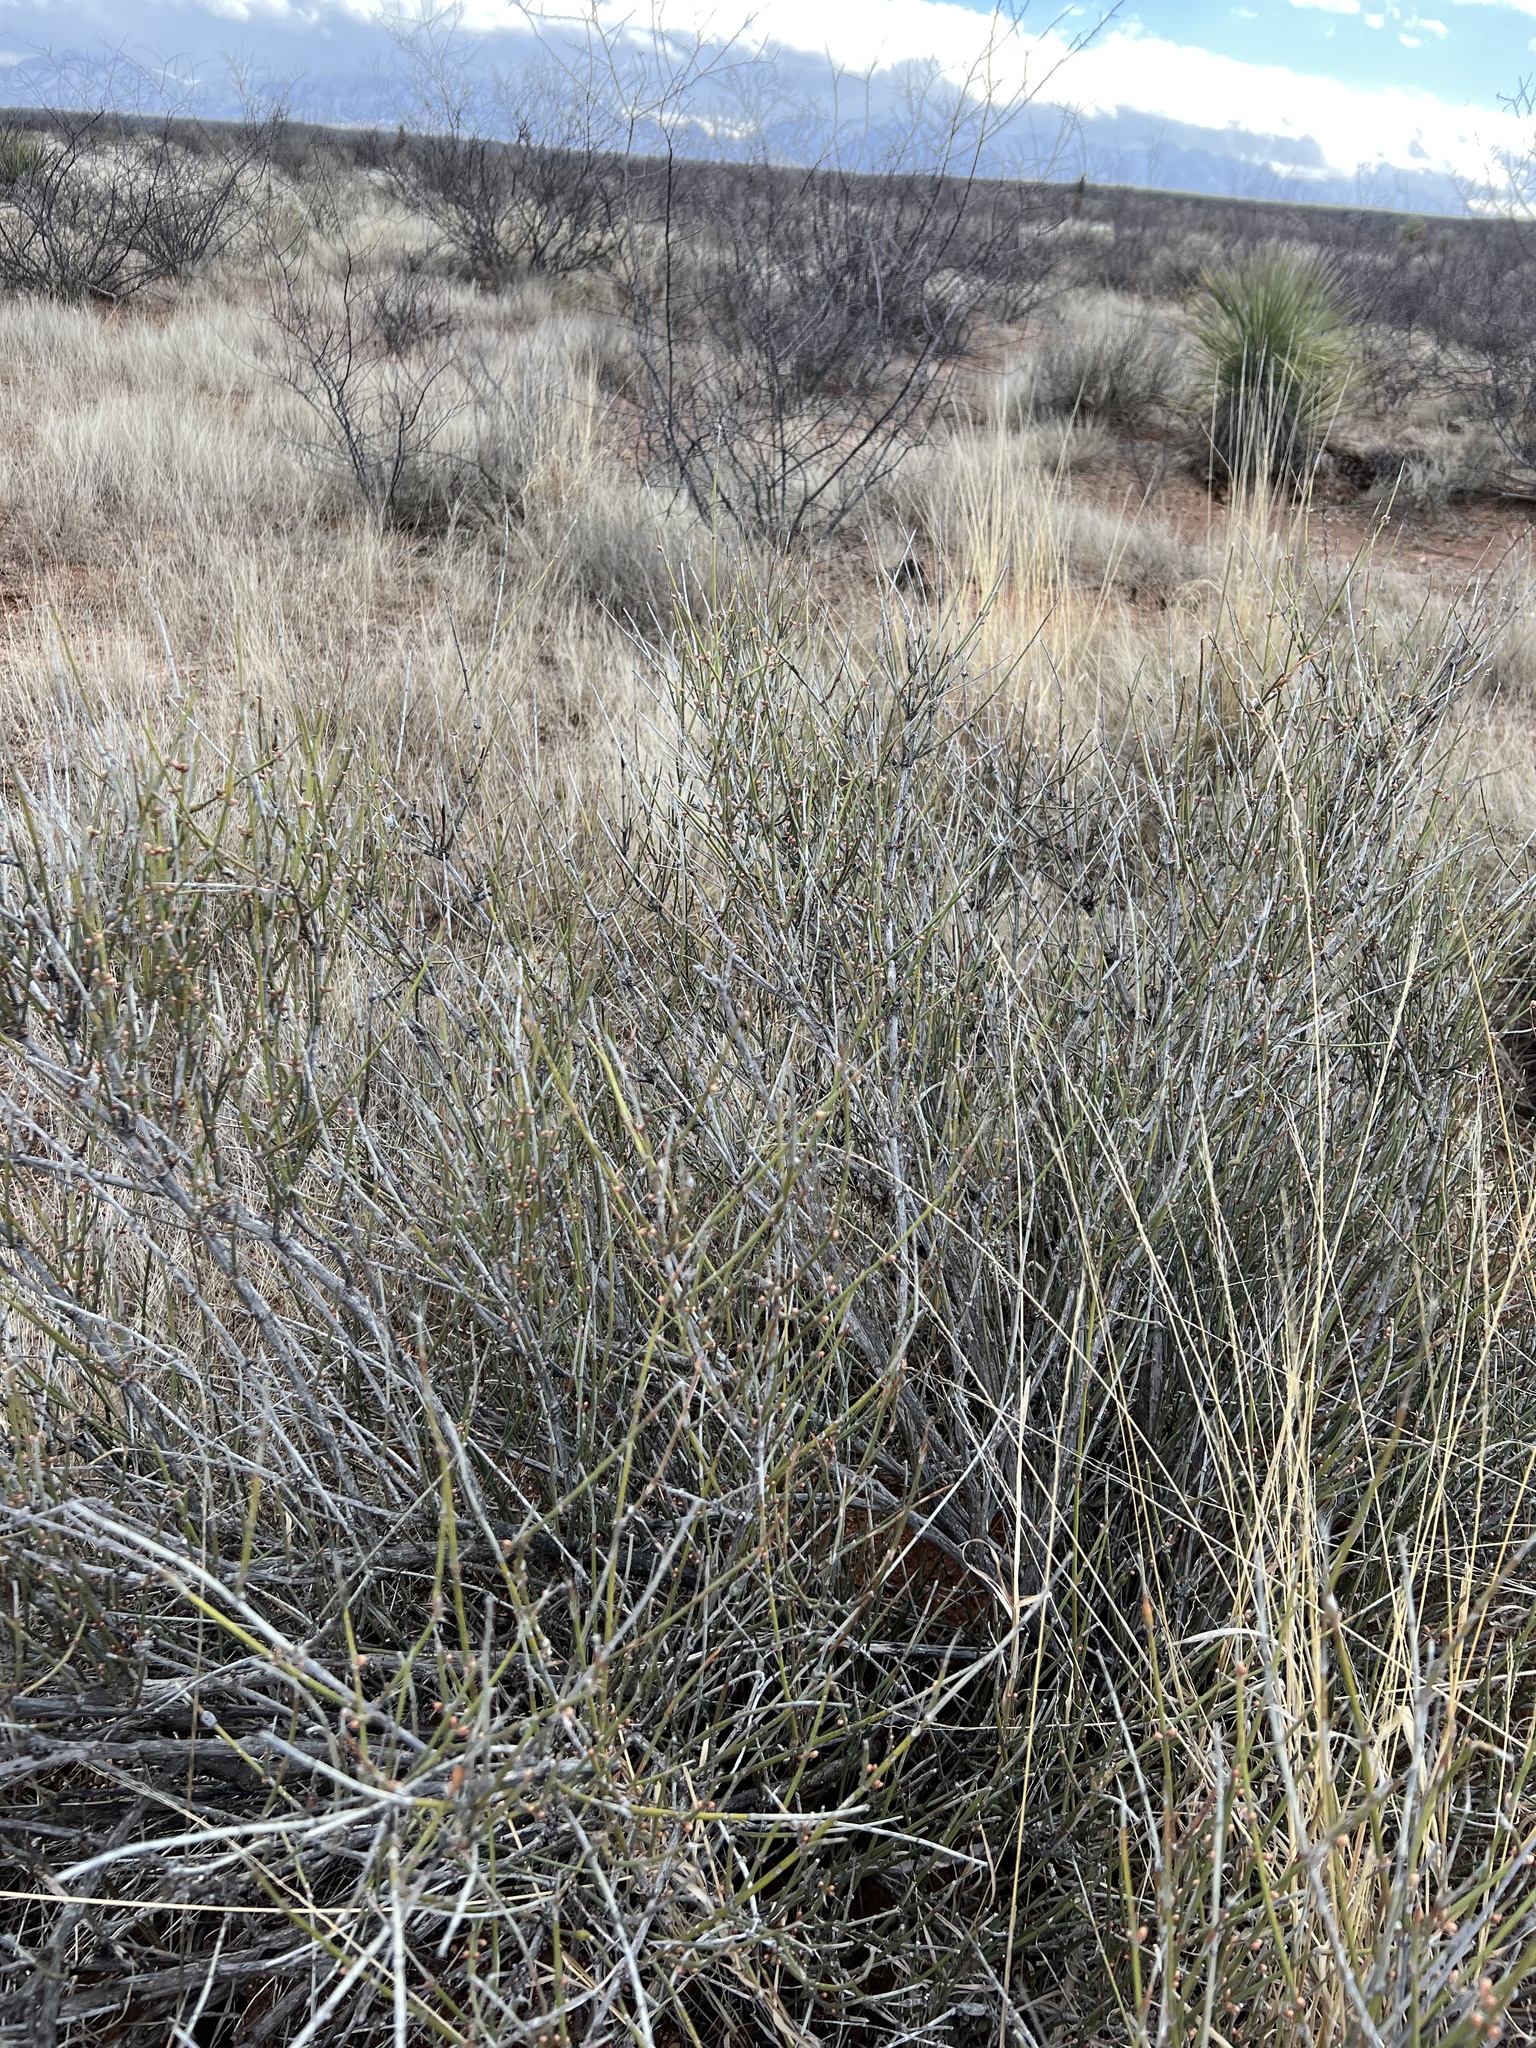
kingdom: Plantae
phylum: Tracheophyta
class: Gnetopsida
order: Ephedrales
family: Ephedraceae
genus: Ephedra
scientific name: Ephedra trifurca
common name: Mexican-tea
